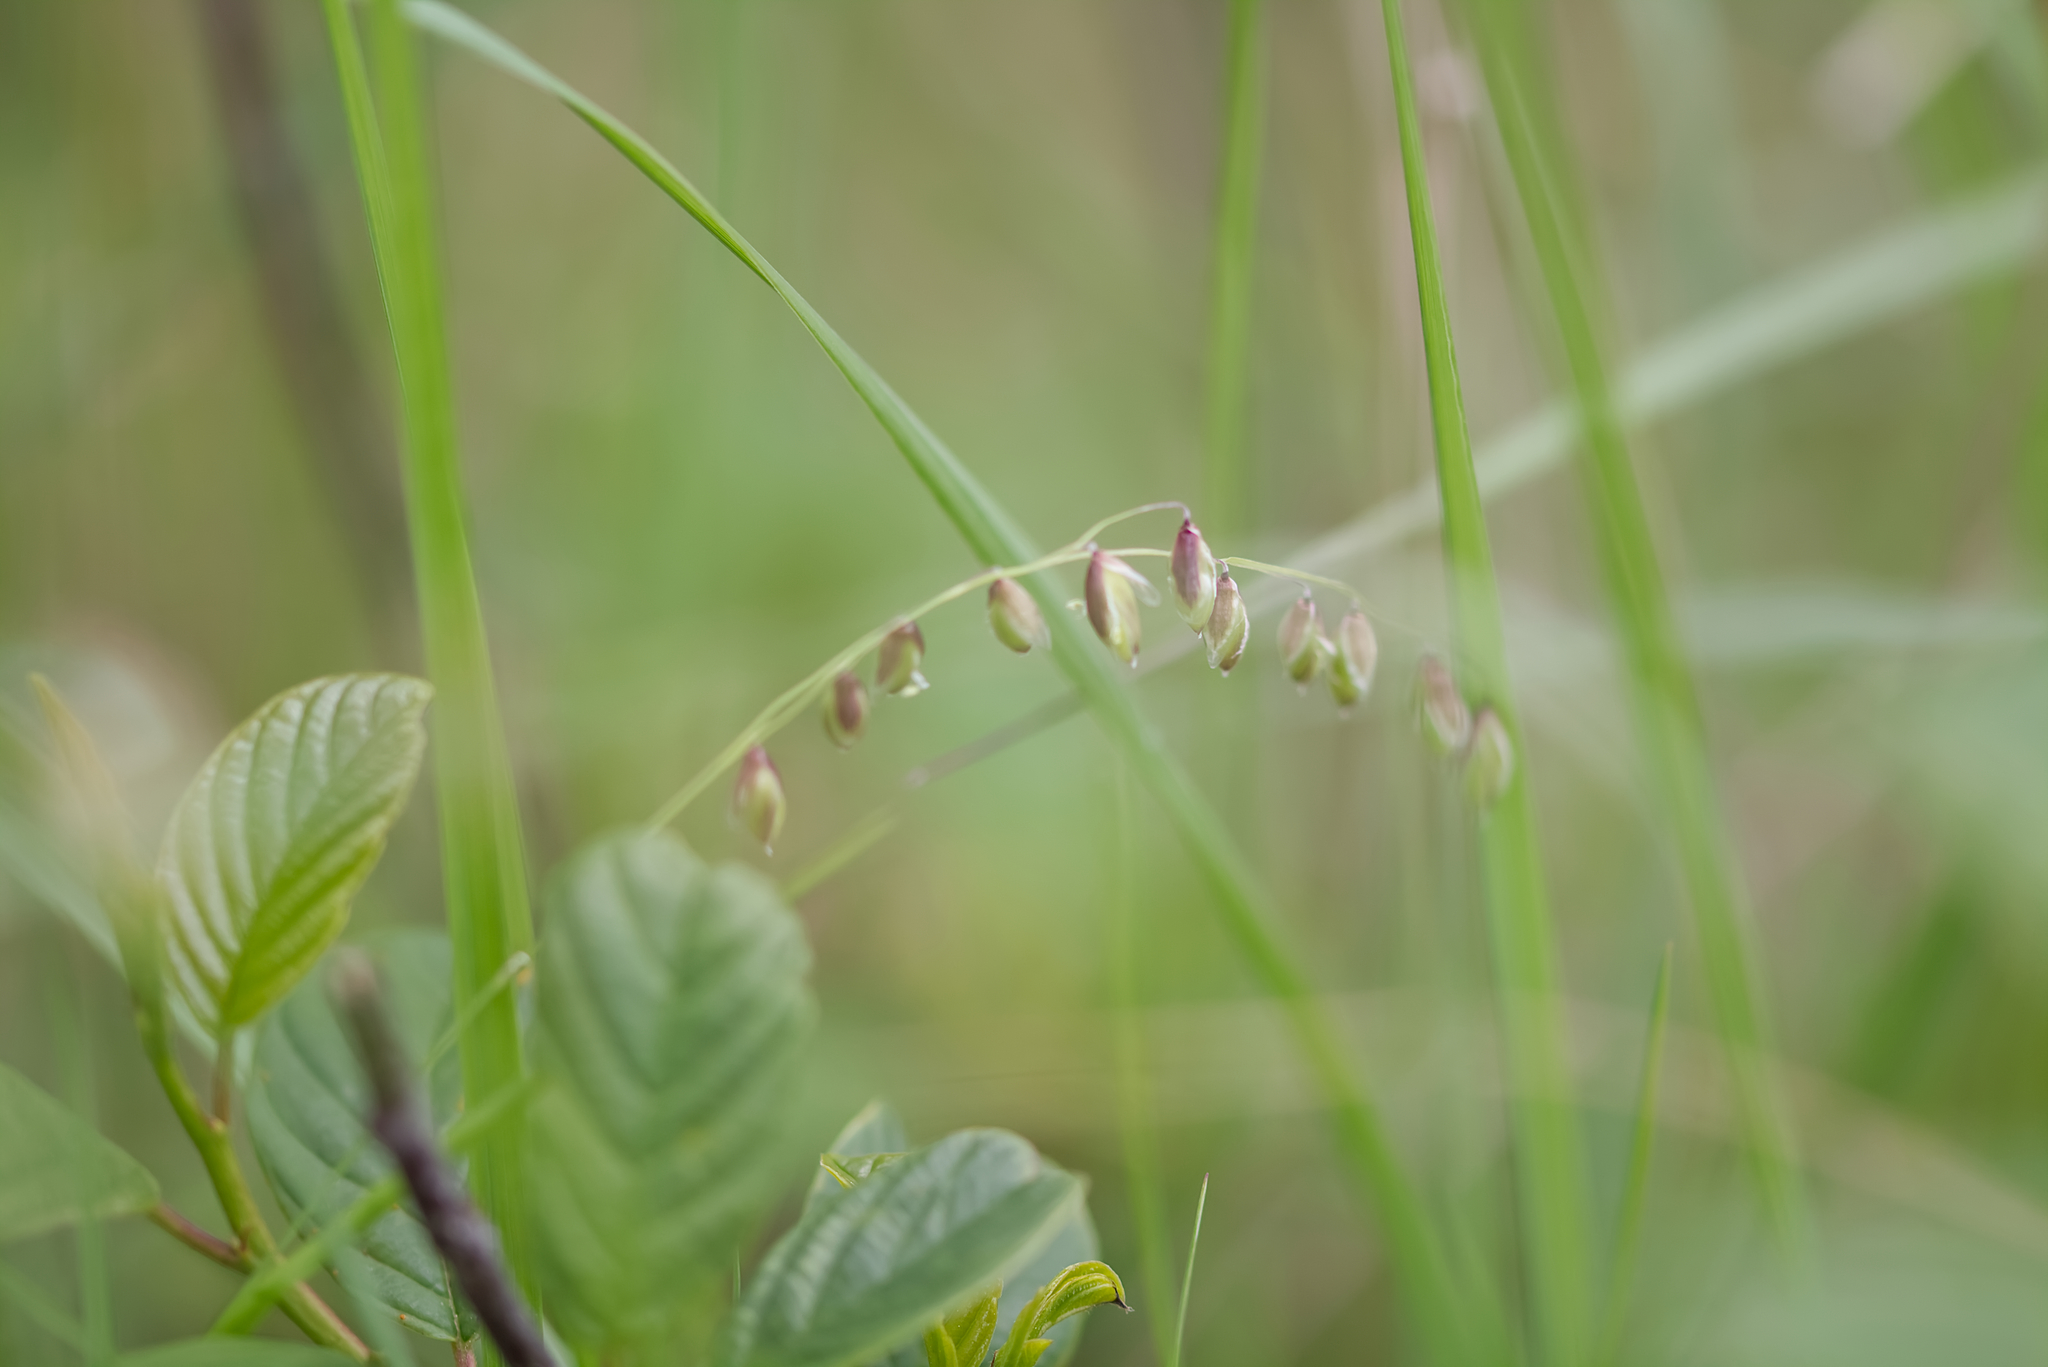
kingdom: Plantae
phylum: Tracheophyta
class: Liliopsida
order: Poales
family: Poaceae
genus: Melica
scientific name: Melica nutans
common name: Mountain melick
